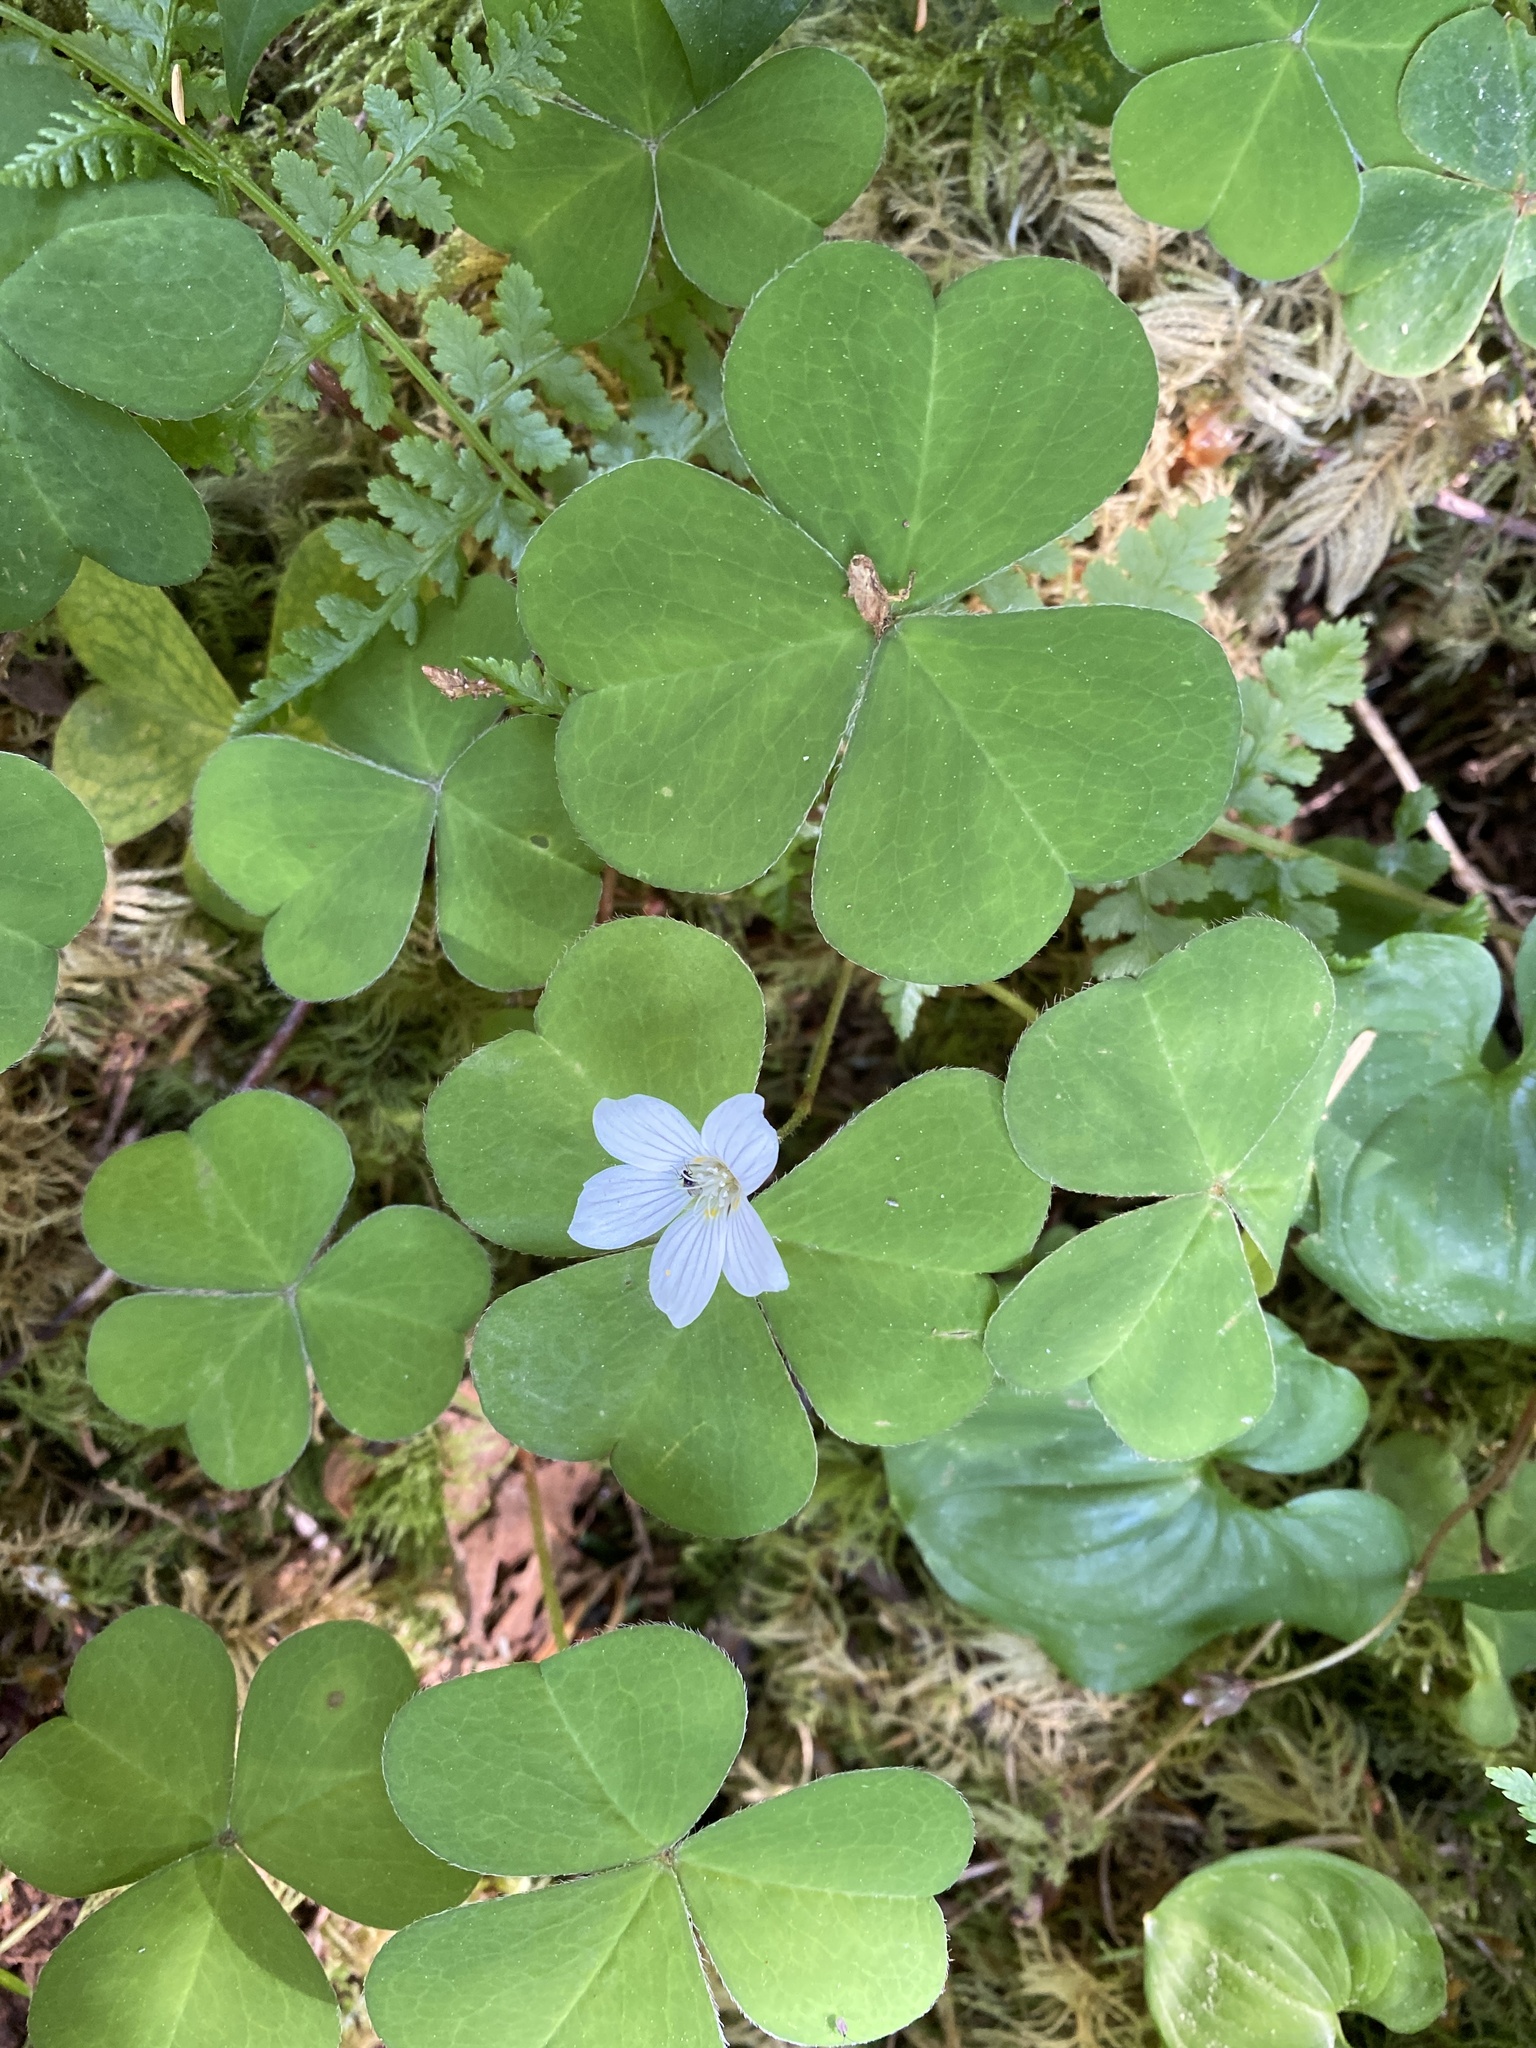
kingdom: Plantae
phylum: Tracheophyta
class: Magnoliopsida
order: Oxalidales
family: Oxalidaceae
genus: Oxalis
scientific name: Oxalis oregana
